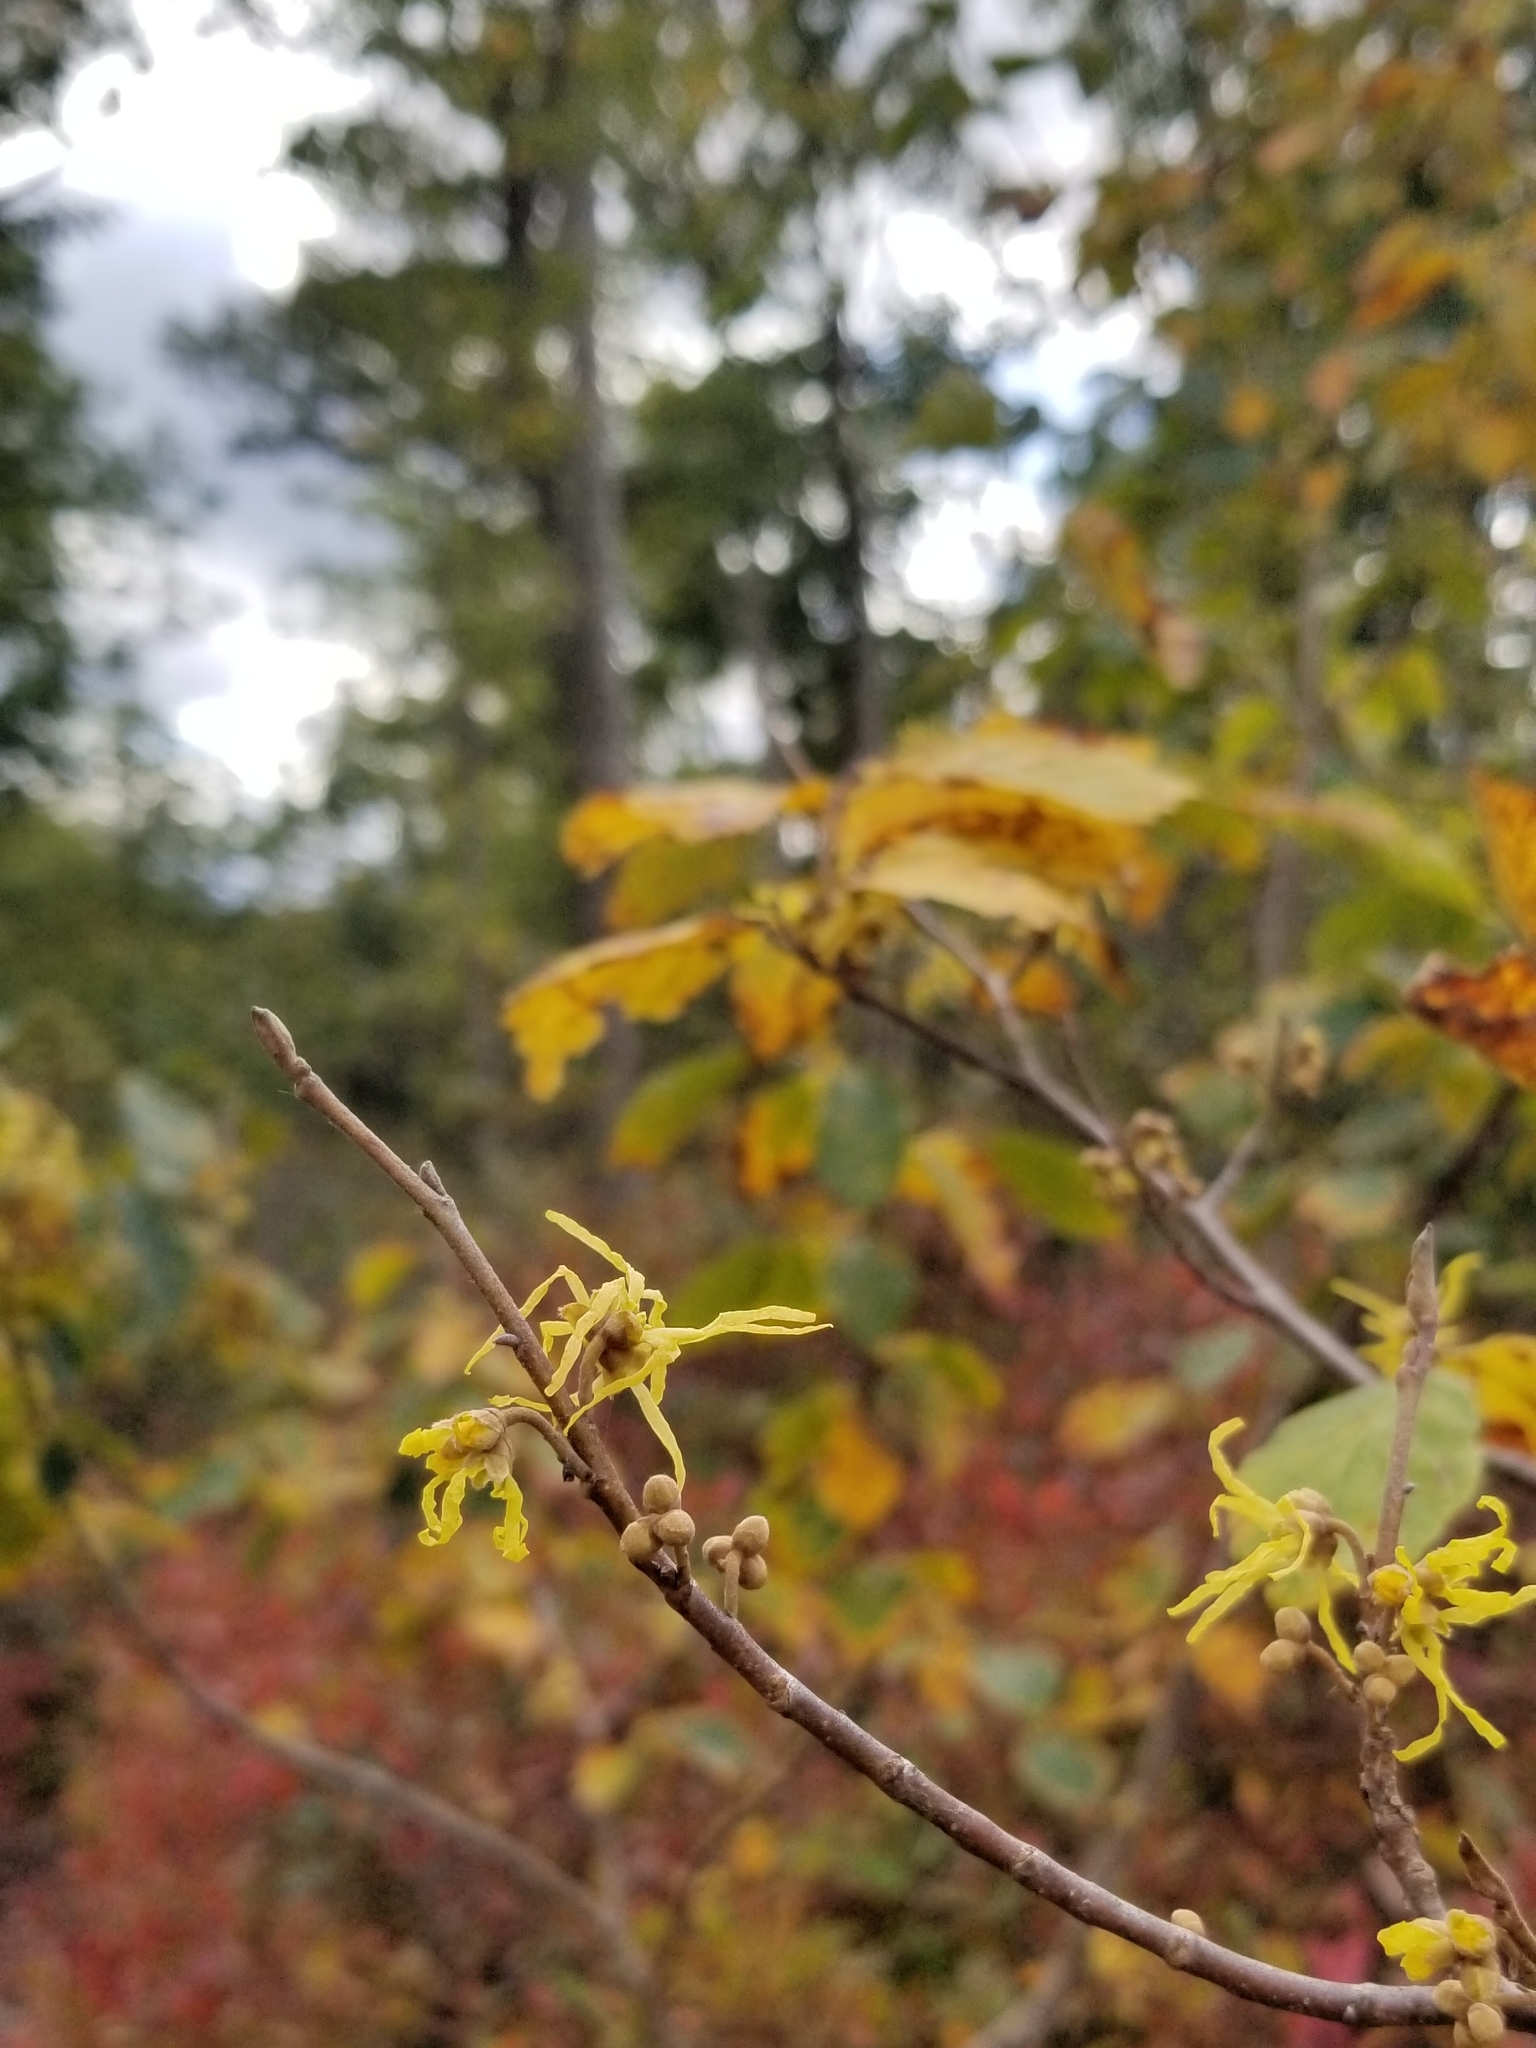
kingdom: Plantae
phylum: Tracheophyta
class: Magnoliopsida
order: Saxifragales
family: Hamamelidaceae
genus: Hamamelis
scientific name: Hamamelis virginiana
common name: Witch-hazel
